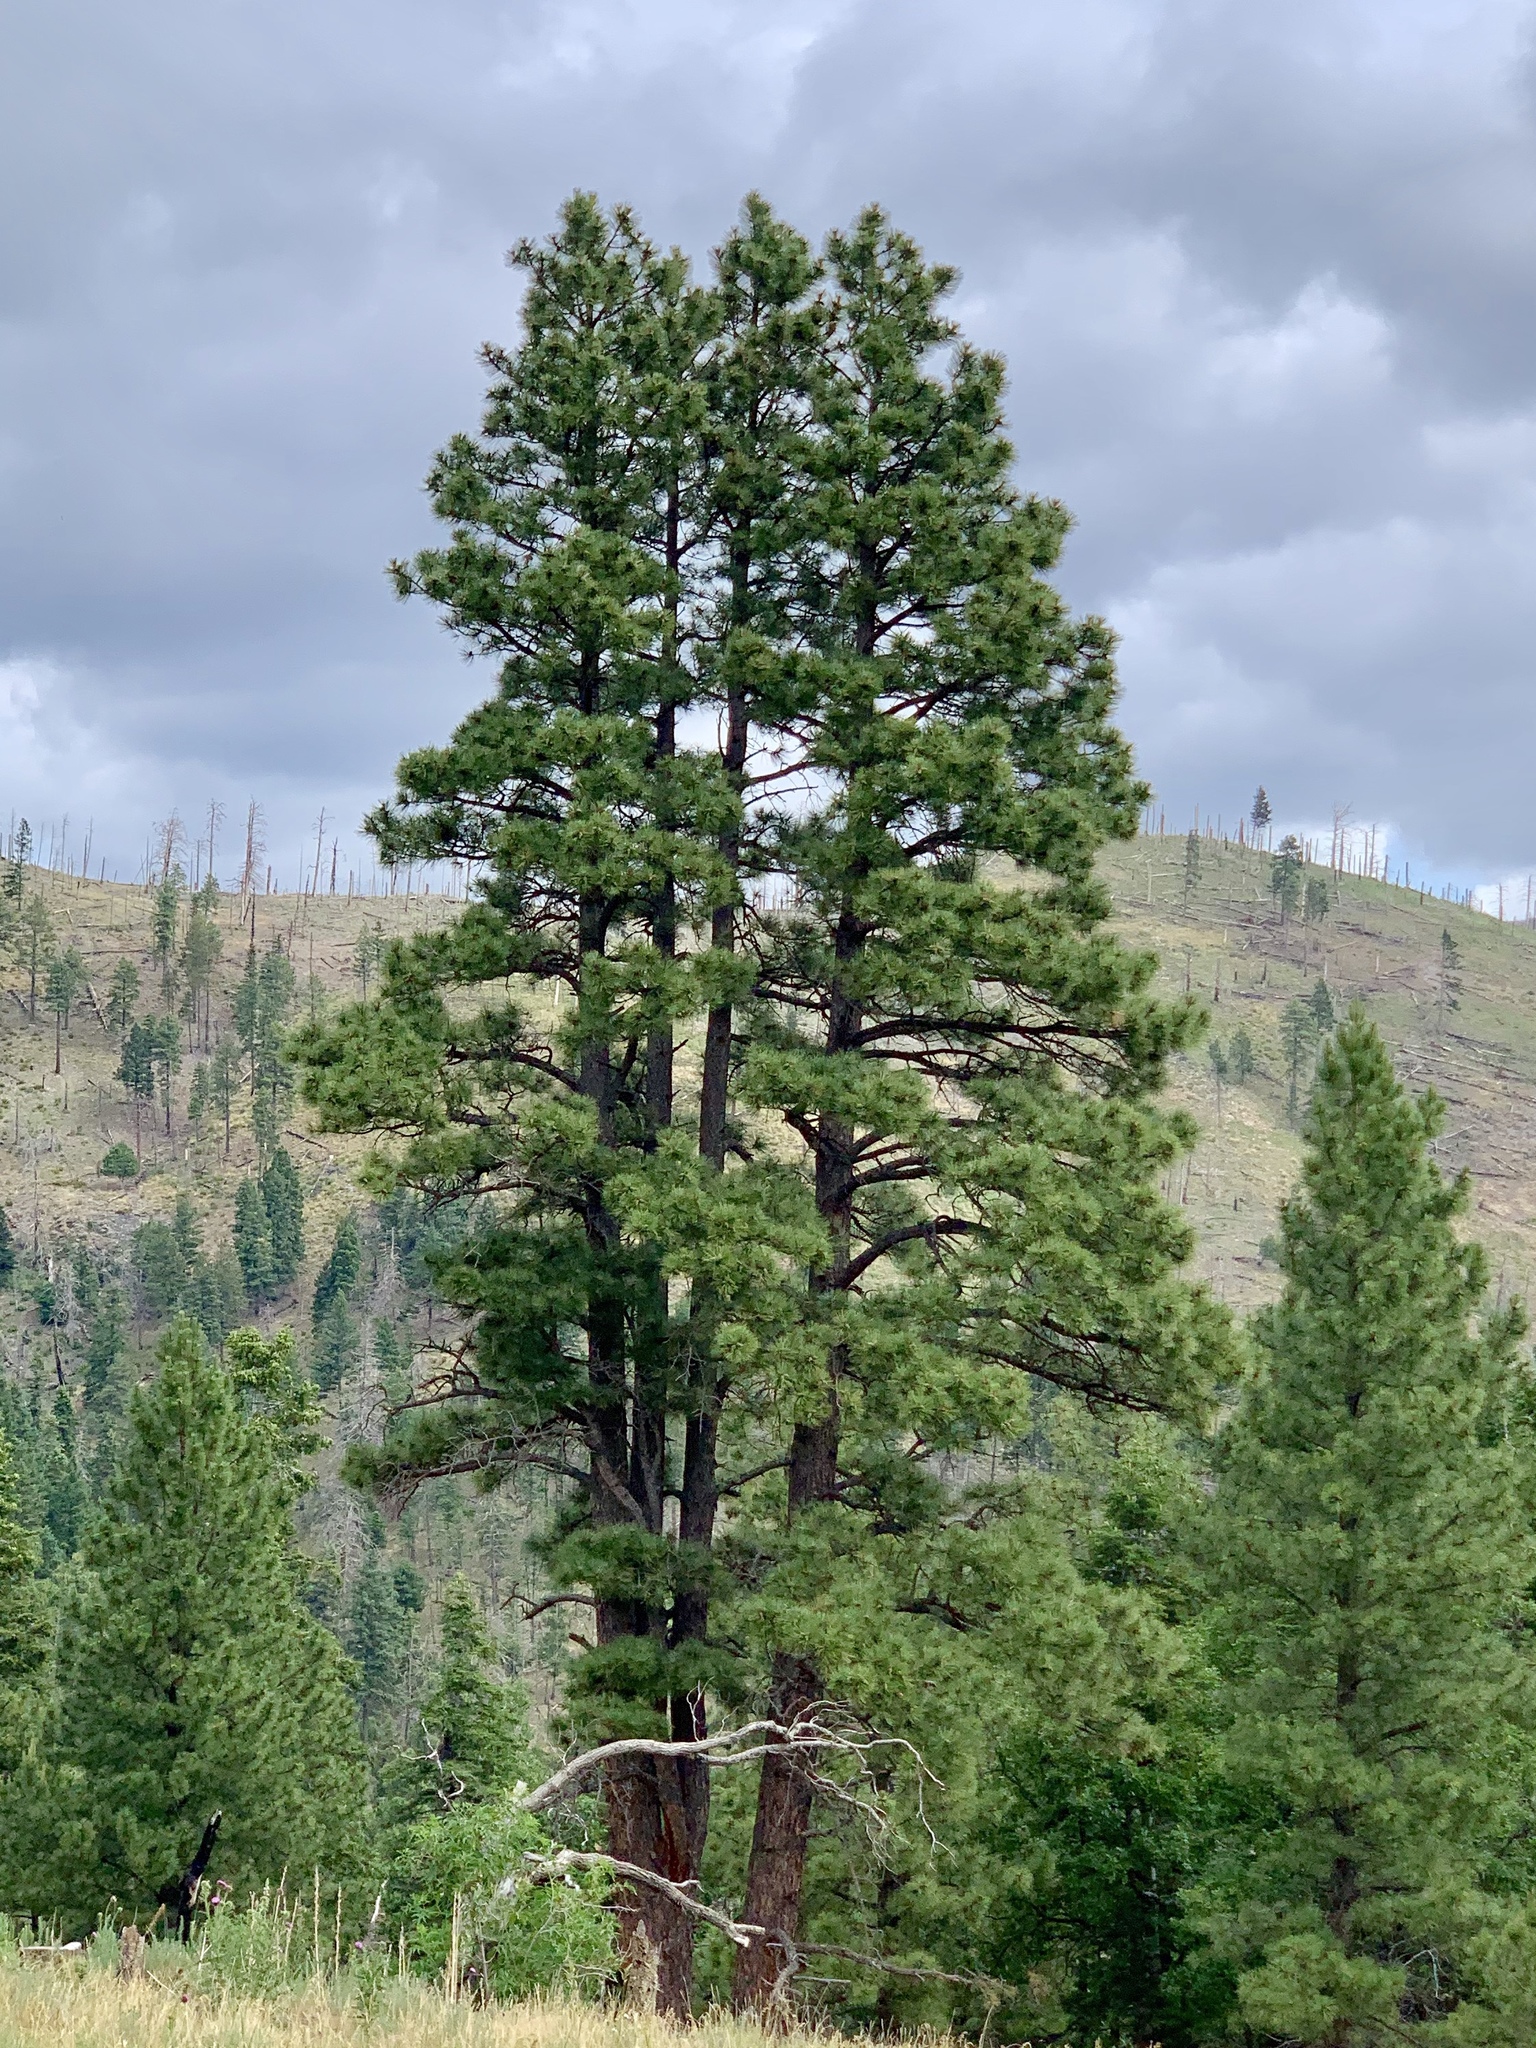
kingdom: Plantae
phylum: Tracheophyta
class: Pinopsida
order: Pinales
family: Pinaceae
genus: Pinus
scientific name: Pinus ponderosa
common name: Western yellow-pine
